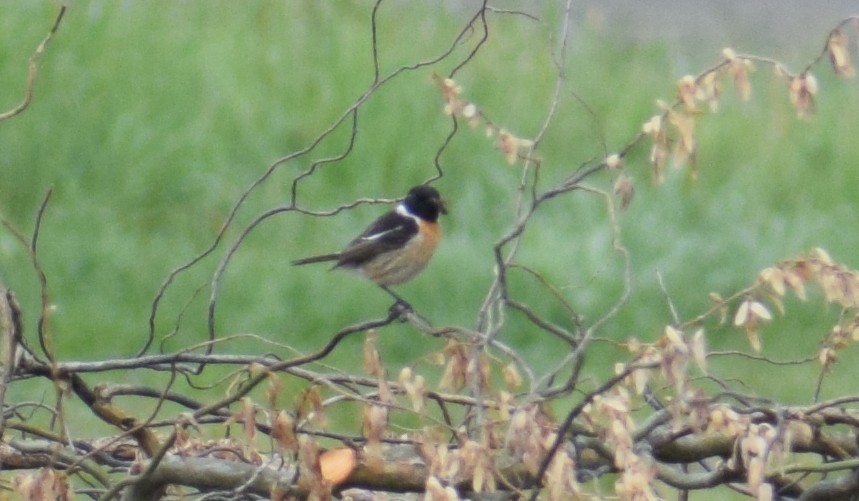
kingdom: Animalia
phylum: Chordata
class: Aves
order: Passeriformes
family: Muscicapidae
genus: Saxicola
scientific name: Saxicola rubicola
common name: European stonechat
